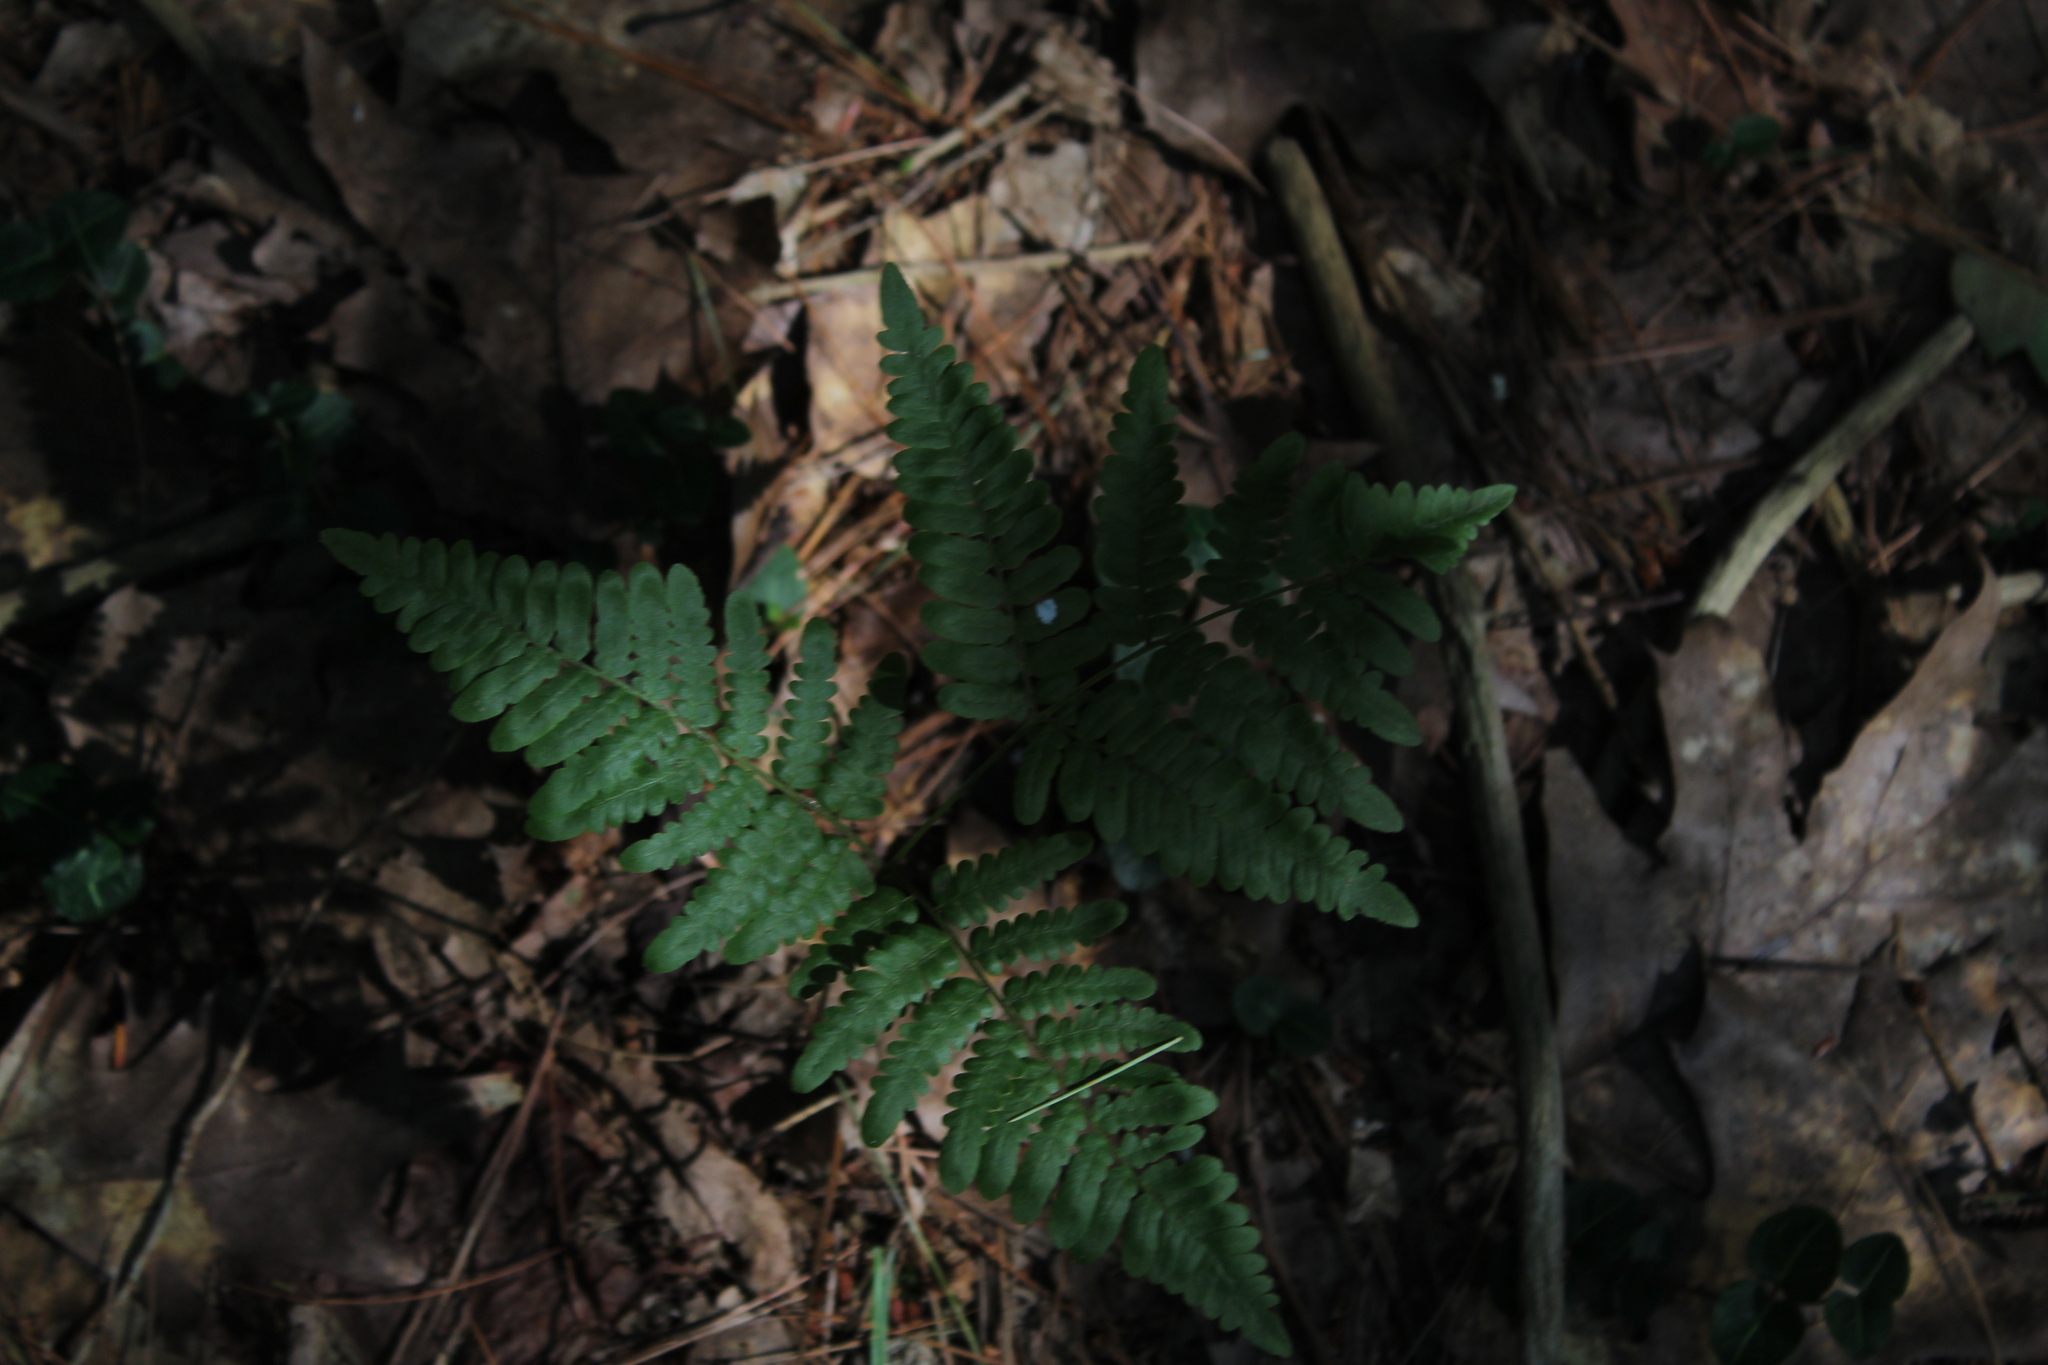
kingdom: Plantae
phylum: Tracheophyta
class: Polypodiopsida
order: Polypodiales
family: Dennstaedtiaceae
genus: Pteridium
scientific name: Pteridium aquilinum
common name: Bracken
